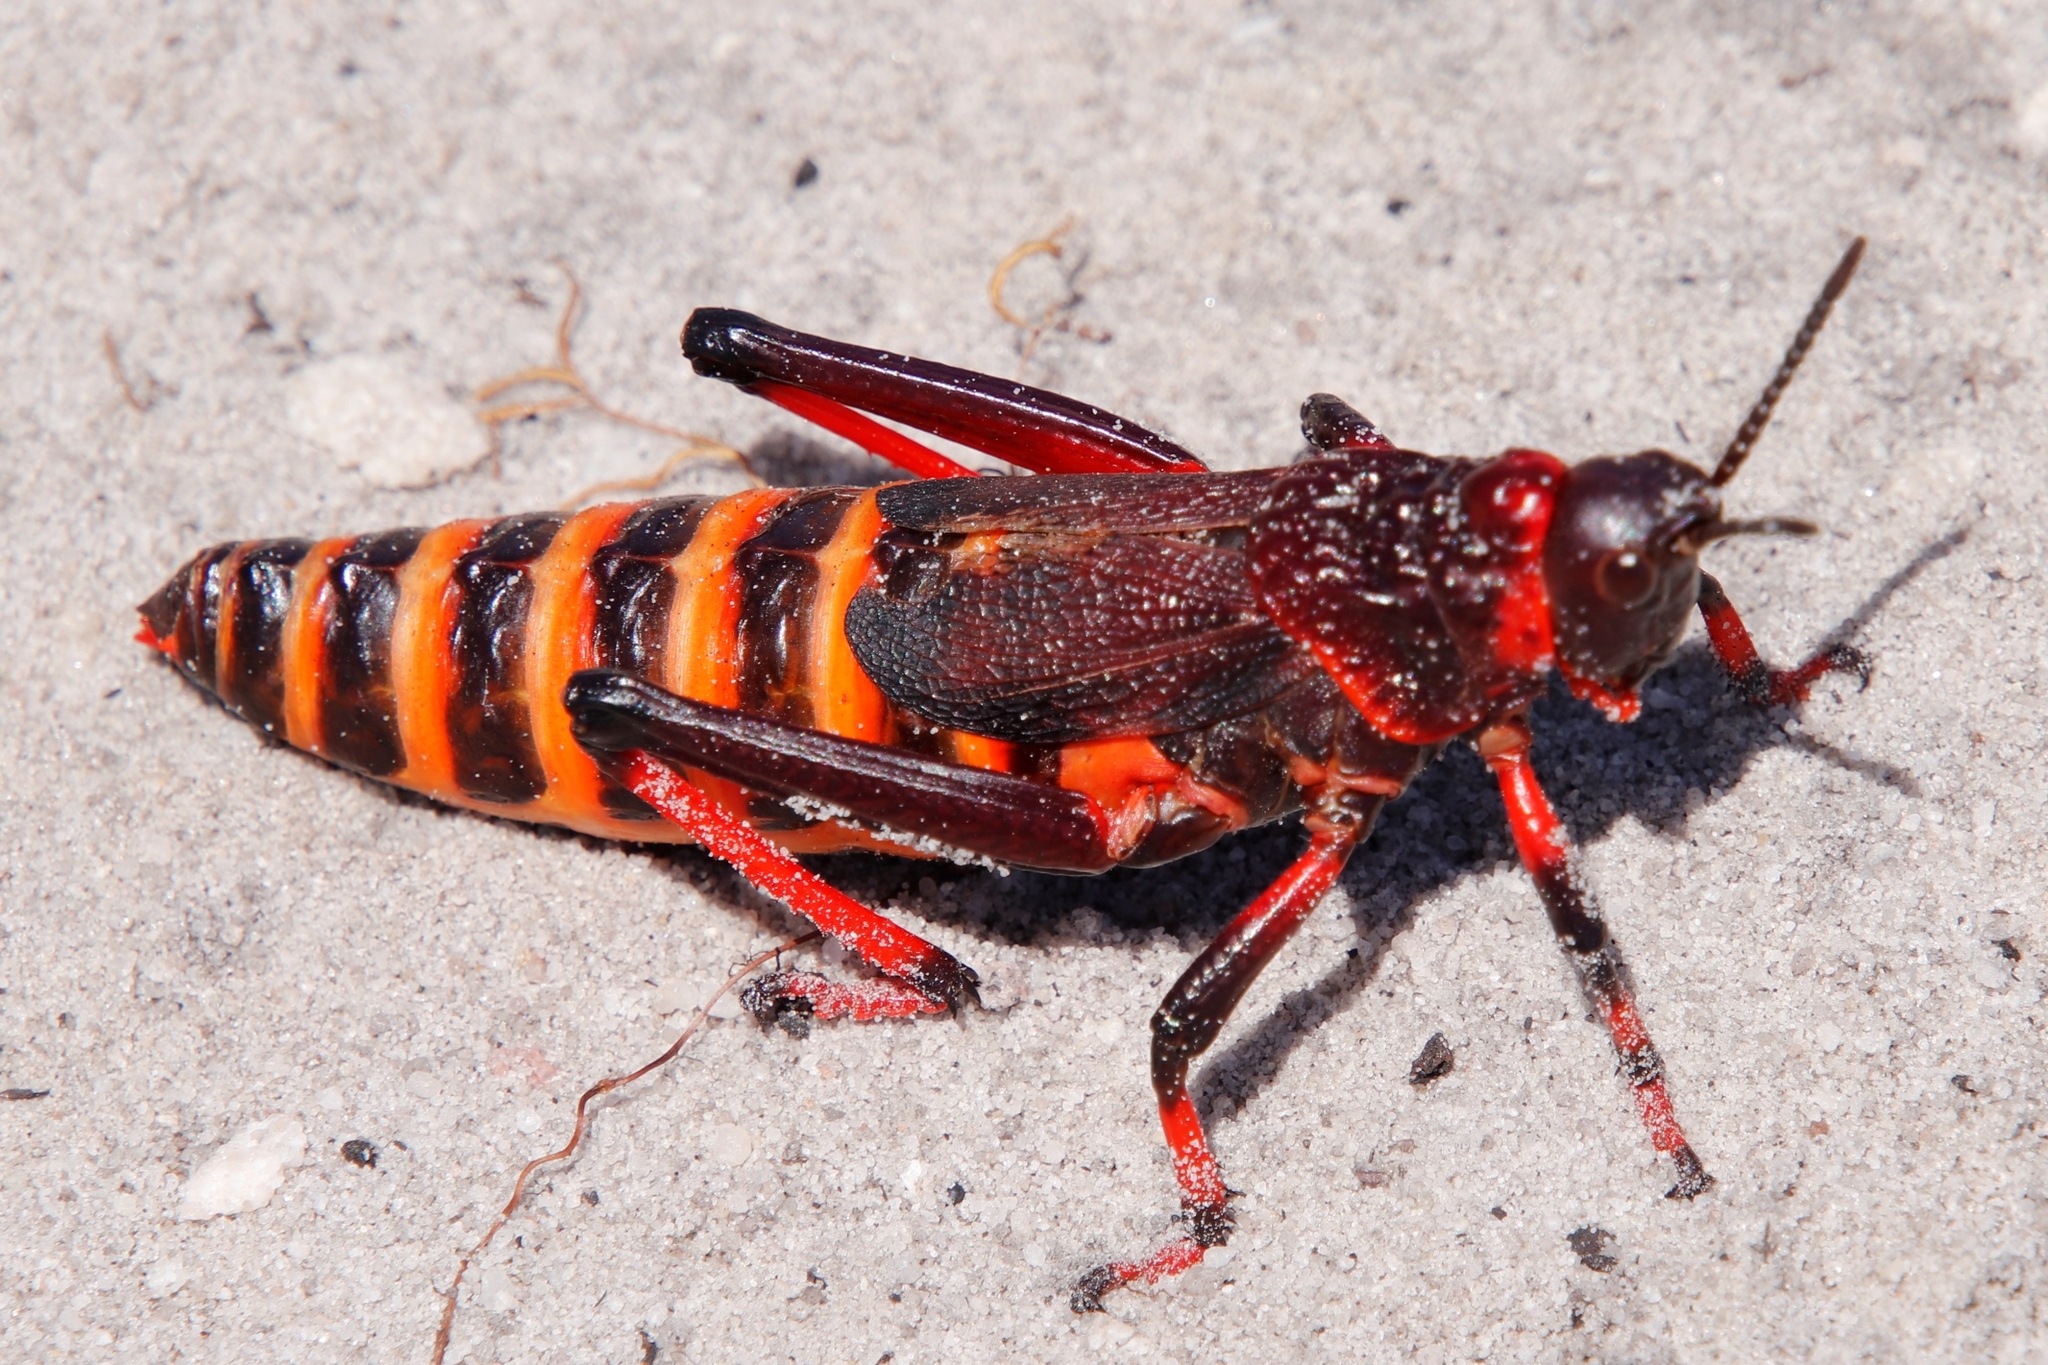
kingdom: Animalia
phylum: Arthropoda
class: Insecta
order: Orthoptera
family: Pyrgomorphidae
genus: Dictyophorus
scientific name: Dictyophorus spumans
